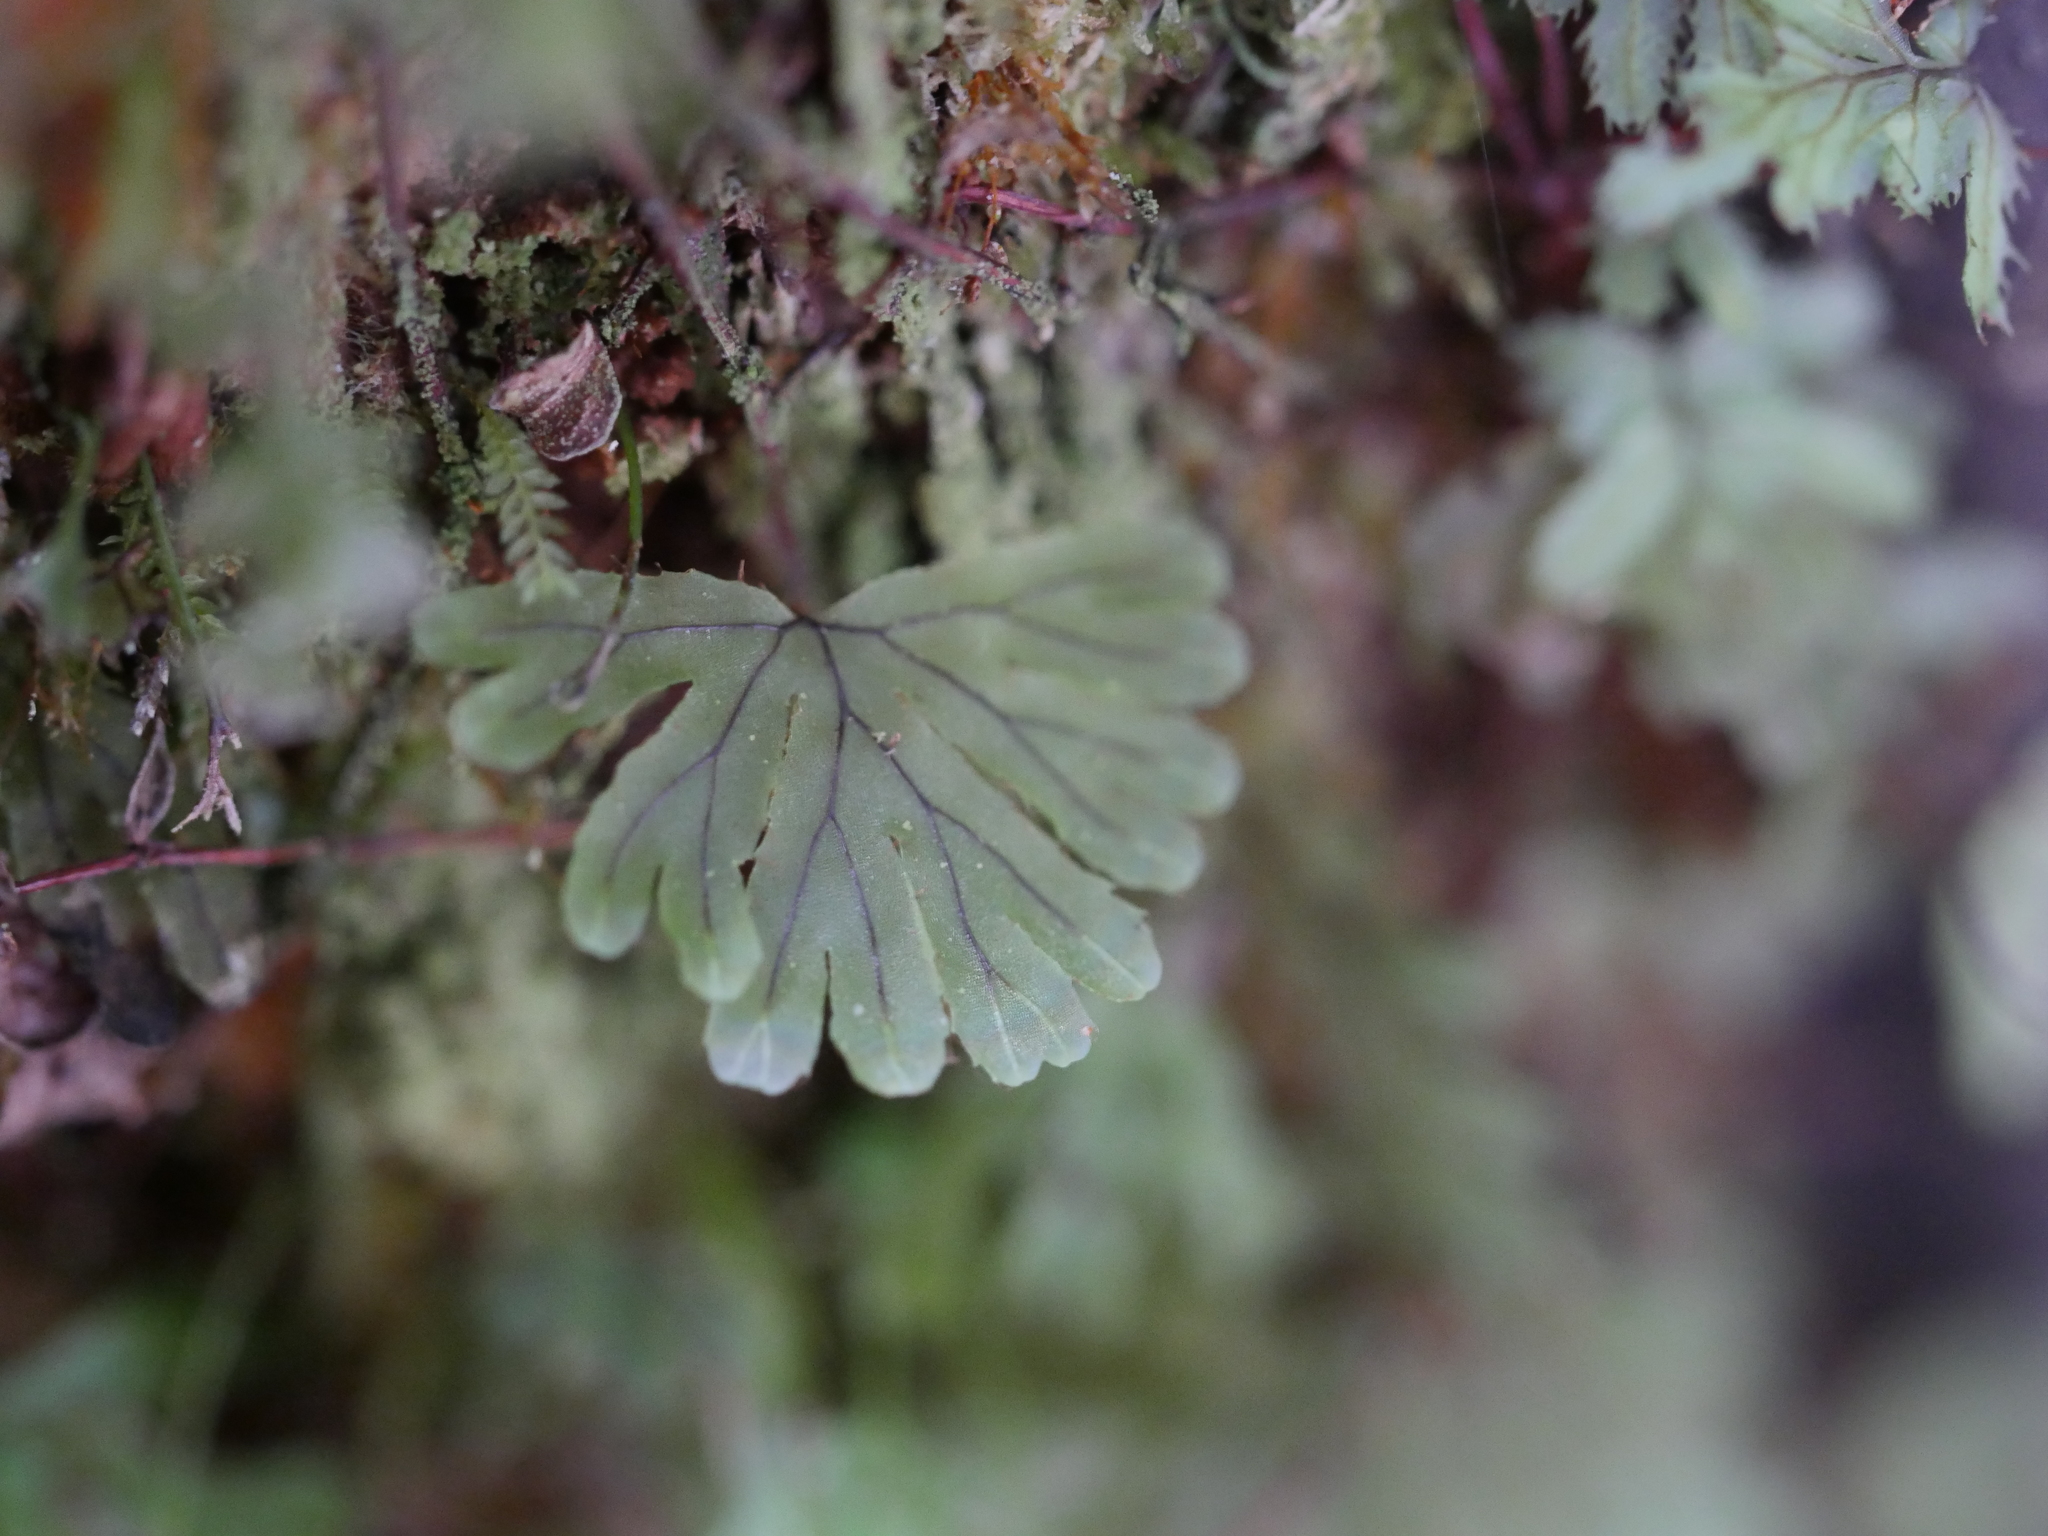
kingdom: Plantae
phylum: Tracheophyta
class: Polypodiopsida
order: Hymenophyllales
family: Hymenophyllaceae
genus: Hymenophyllum
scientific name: Hymenophyllum lyallii
